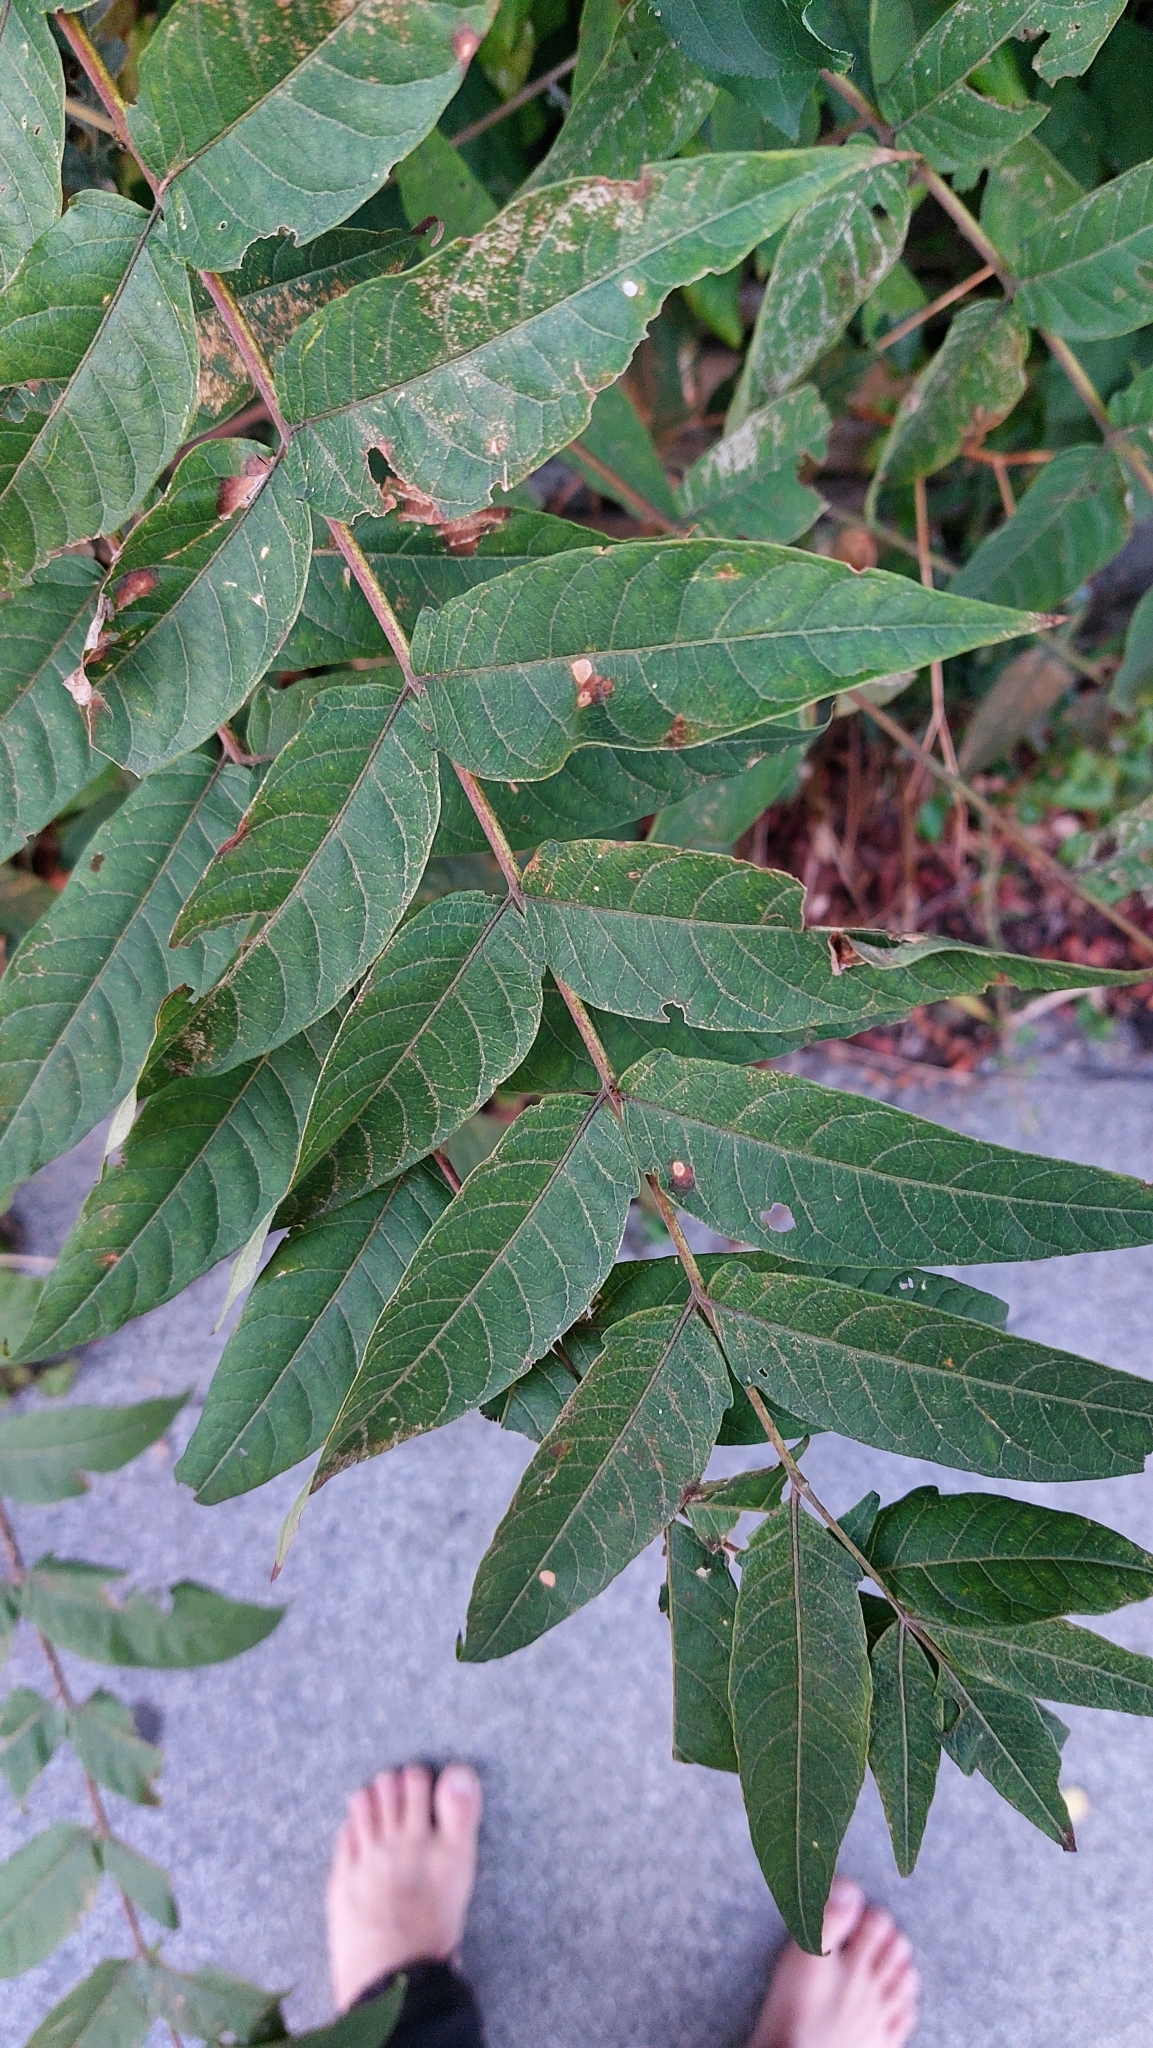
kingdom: Plantae
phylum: Tracheophyta
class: Magnoliopsida
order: Sapindales
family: Simaroubaceae
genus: Ailanthus
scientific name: Ailanthus altissima
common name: Tree-of-heaven
